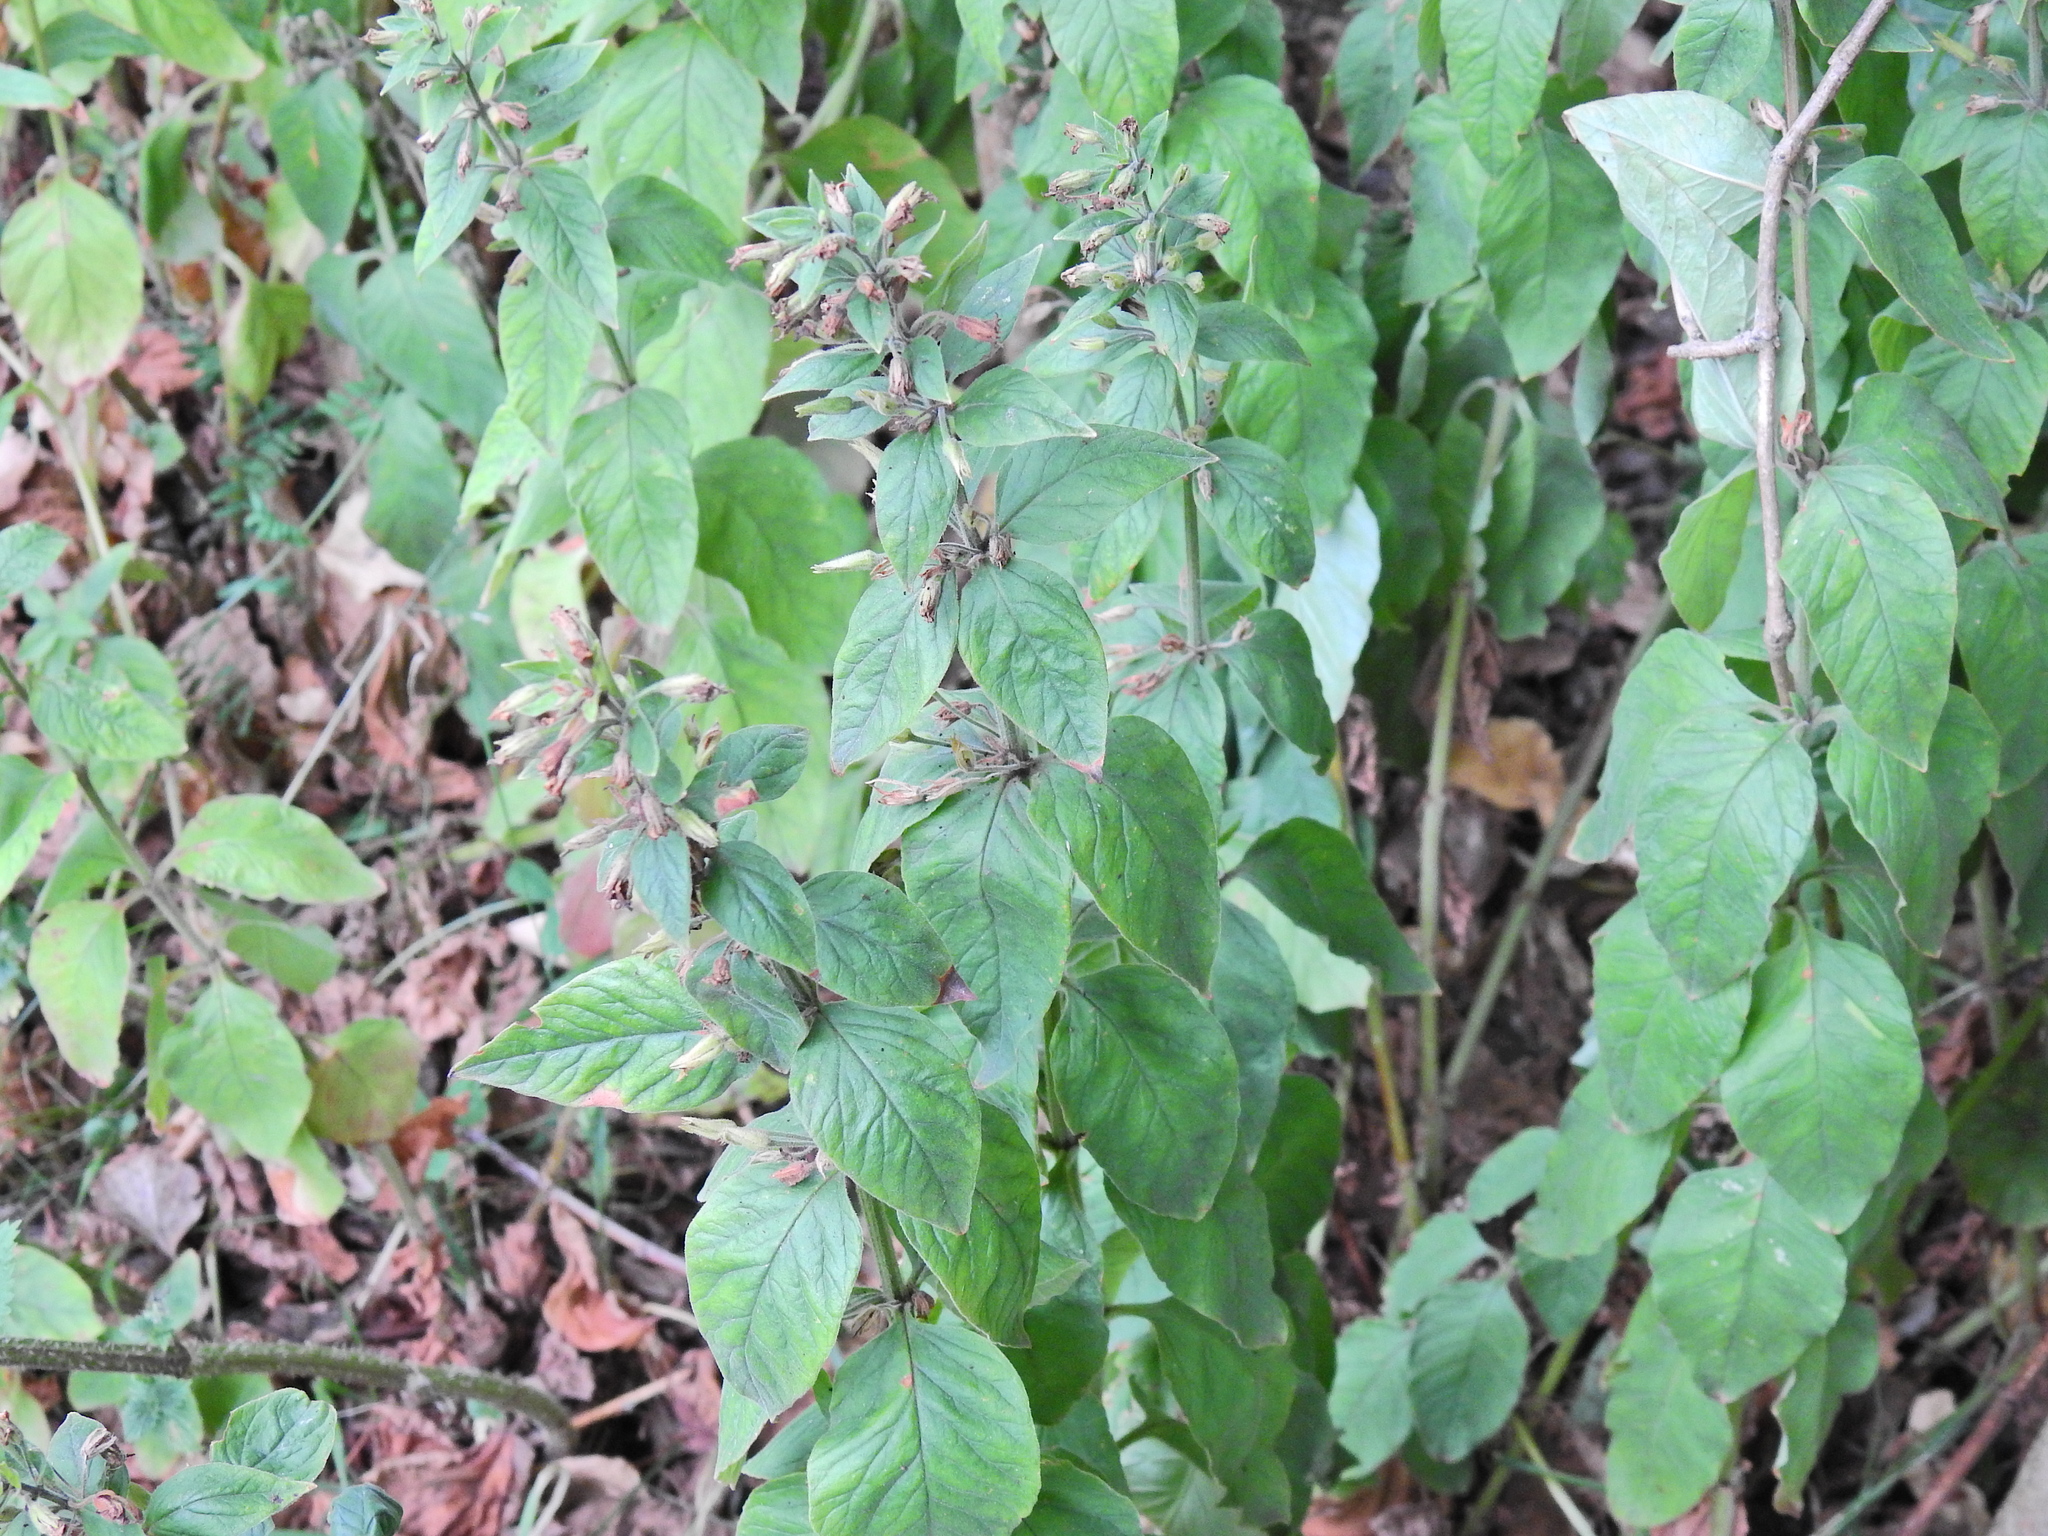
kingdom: Plantae
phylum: Tracheophyta
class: Magnoliopsida
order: Ericales
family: Primulaceae
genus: Lysimachia
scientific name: Lysimachia punctata
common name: Dotted loosestrife
